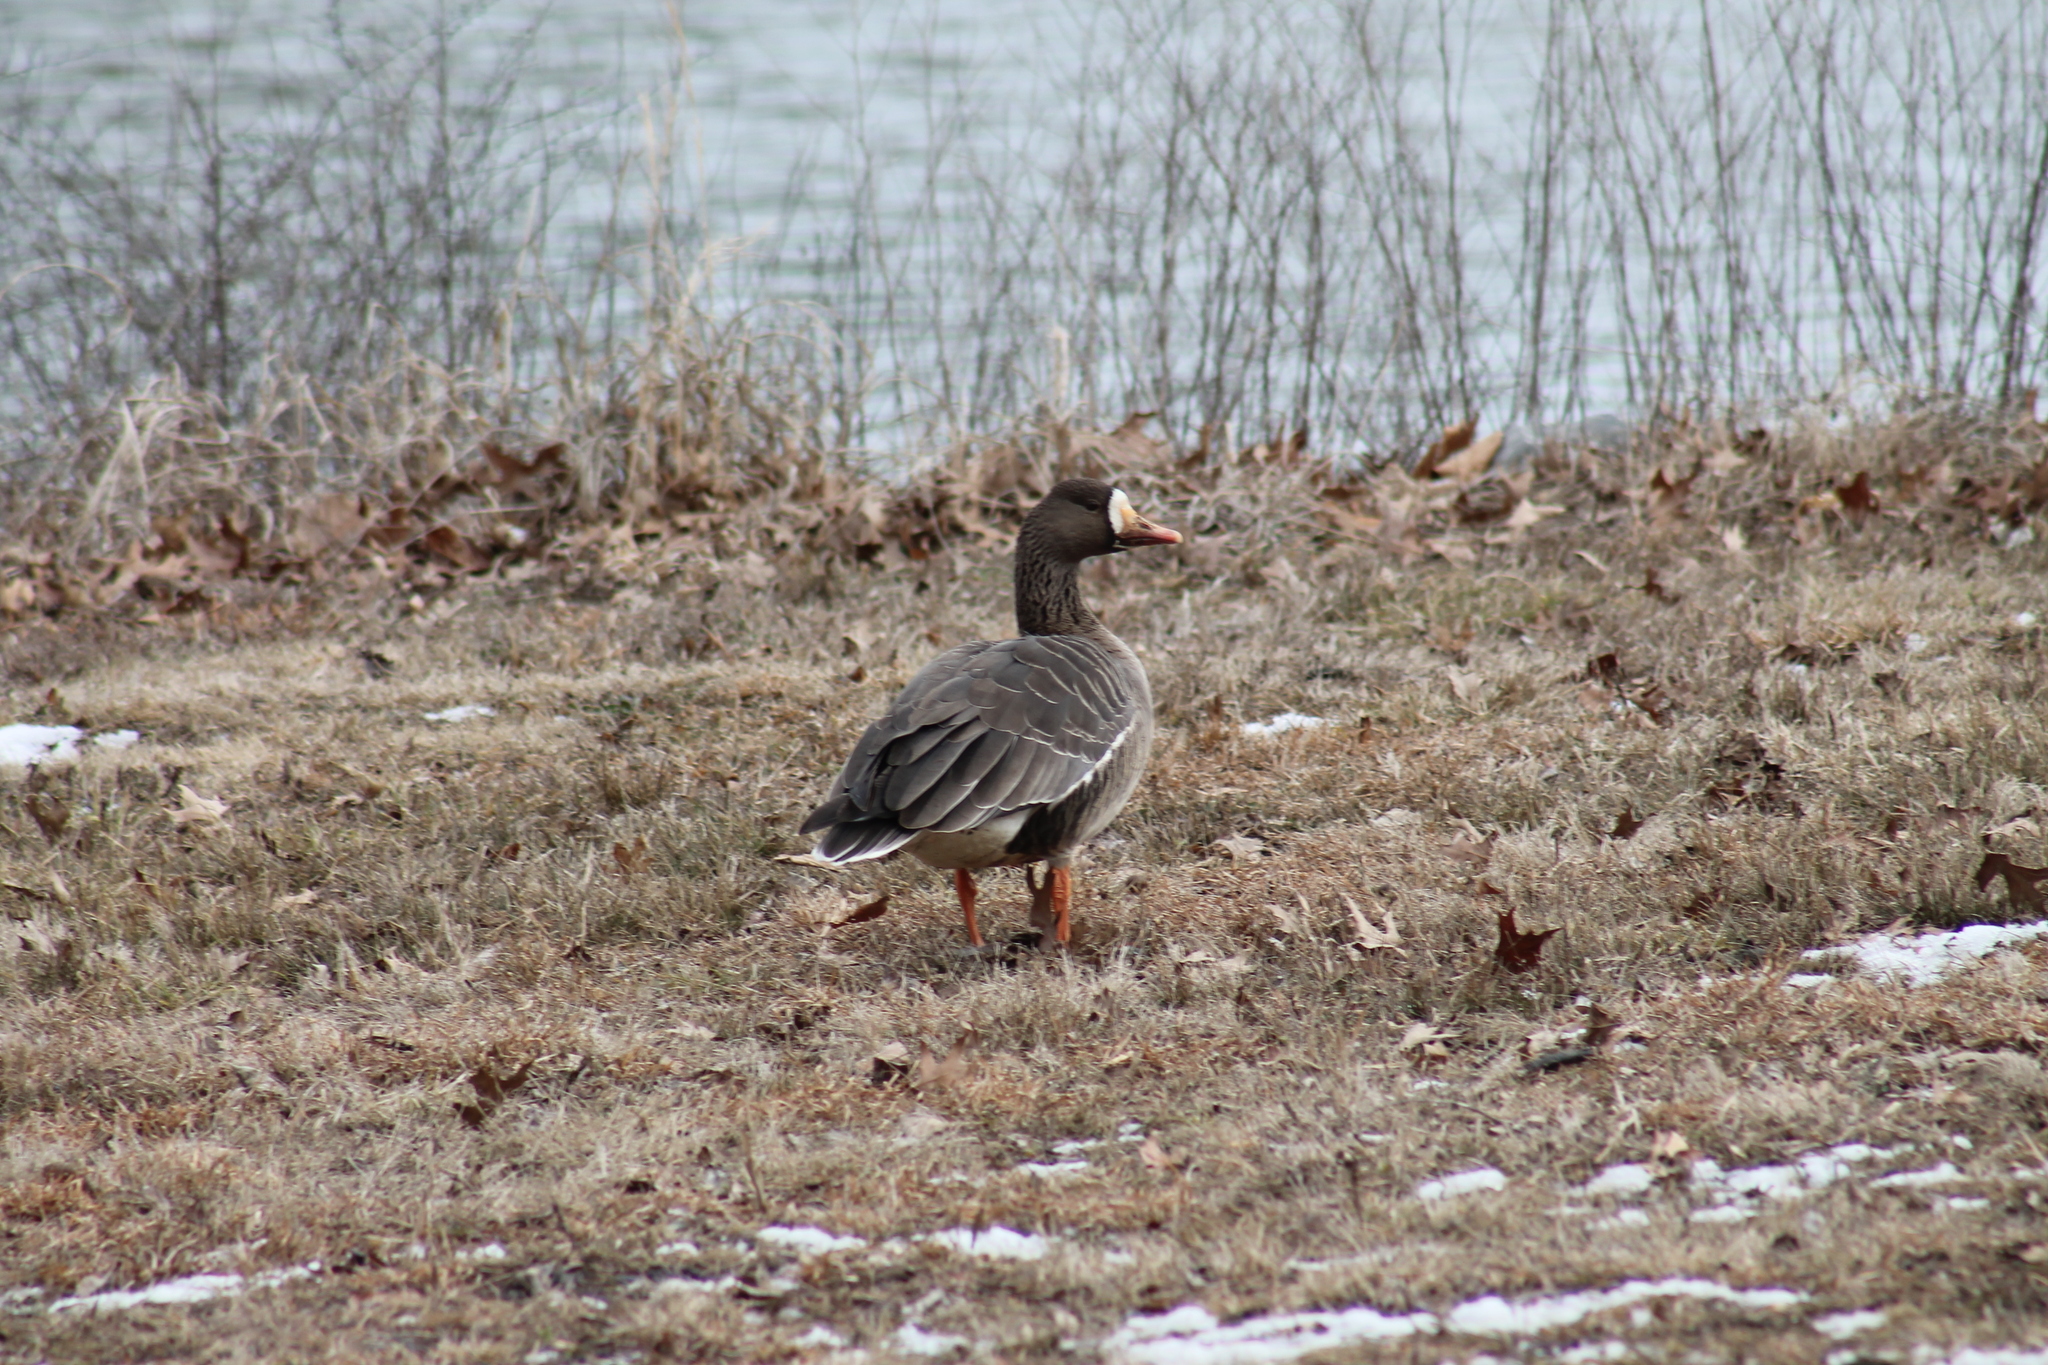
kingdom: Animalia
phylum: Chordata
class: Aves
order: Anseriformes
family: Anatidae
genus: Anser
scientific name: Anser albifrons
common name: Greater white-fronted goose
